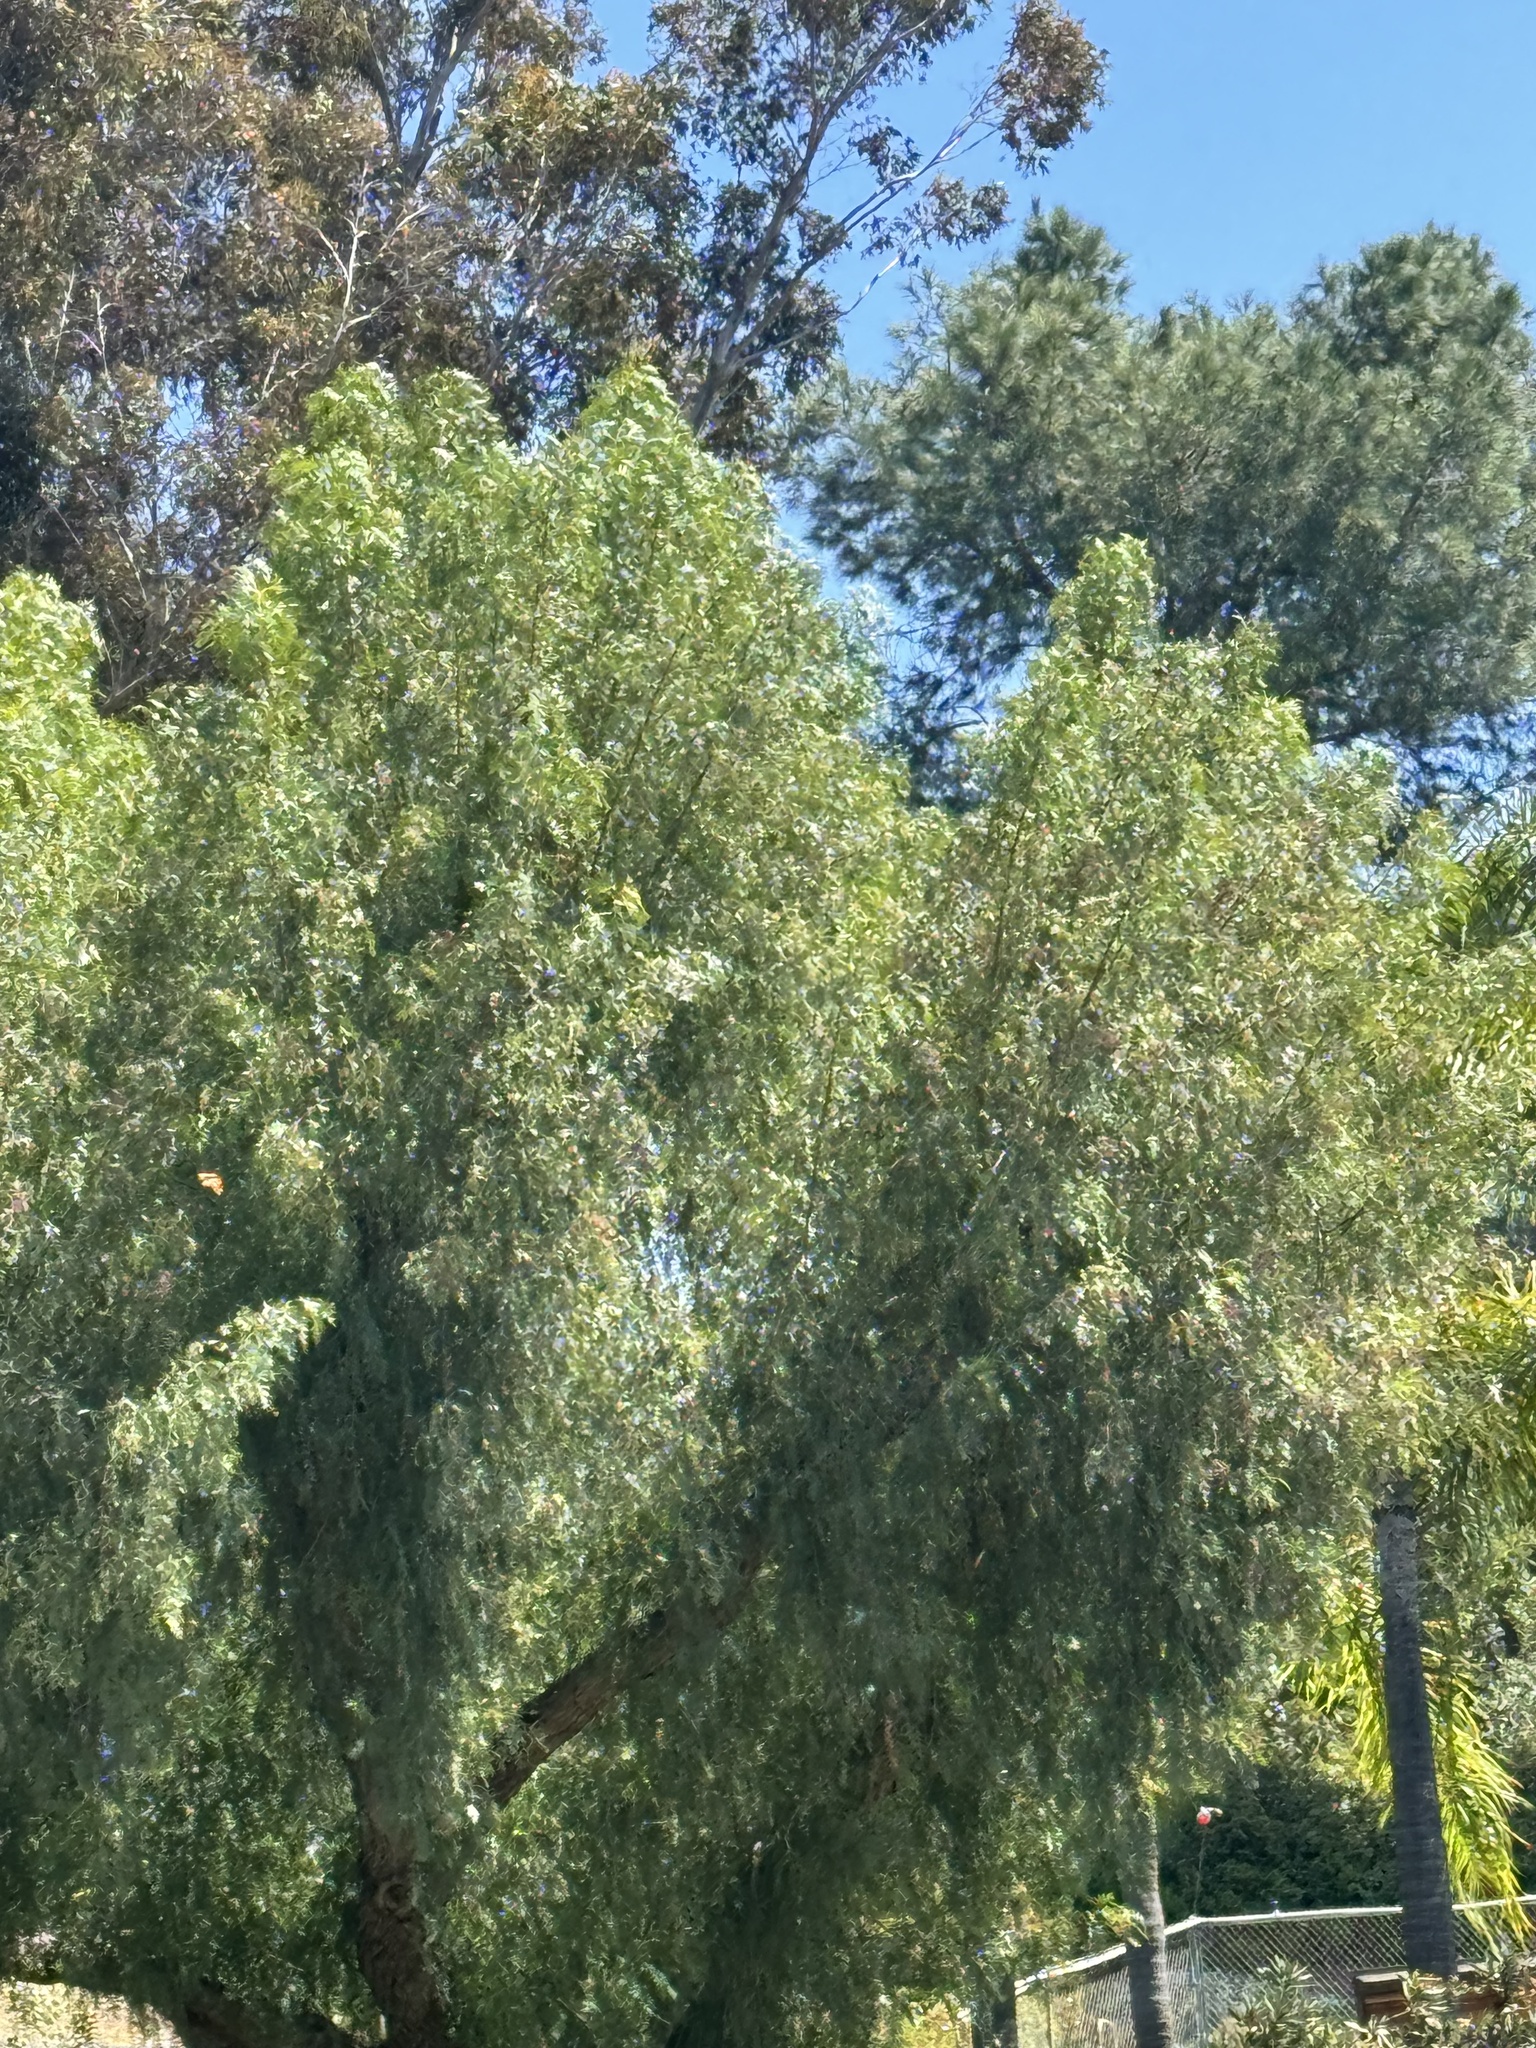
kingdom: Animalia
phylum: Arthropoda
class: Insecta
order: Lepidoptera
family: Nymphalidae
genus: Danaus
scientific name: Danaus plexippus
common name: Monarch
